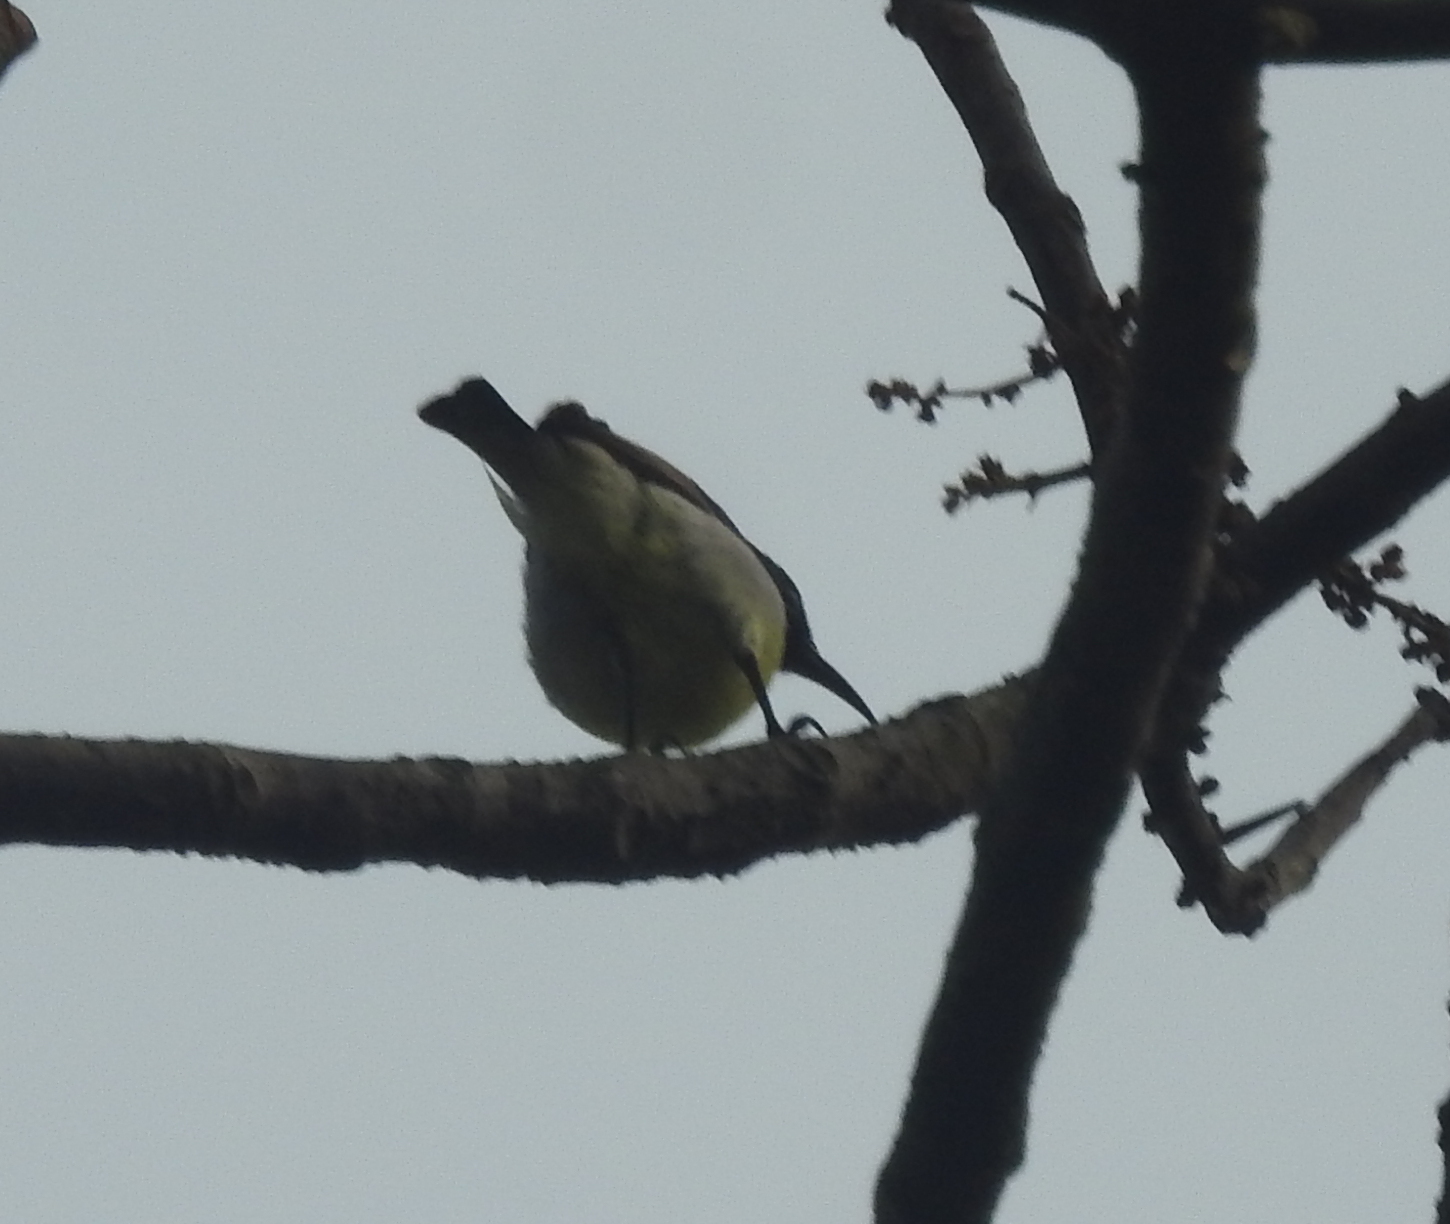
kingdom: Animalia
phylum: Chordata
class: Aves
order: Passeriformes
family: Nectariniidae
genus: Leptocoma
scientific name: Leptocoma zeylonica
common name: Purple-rumped sunbird
